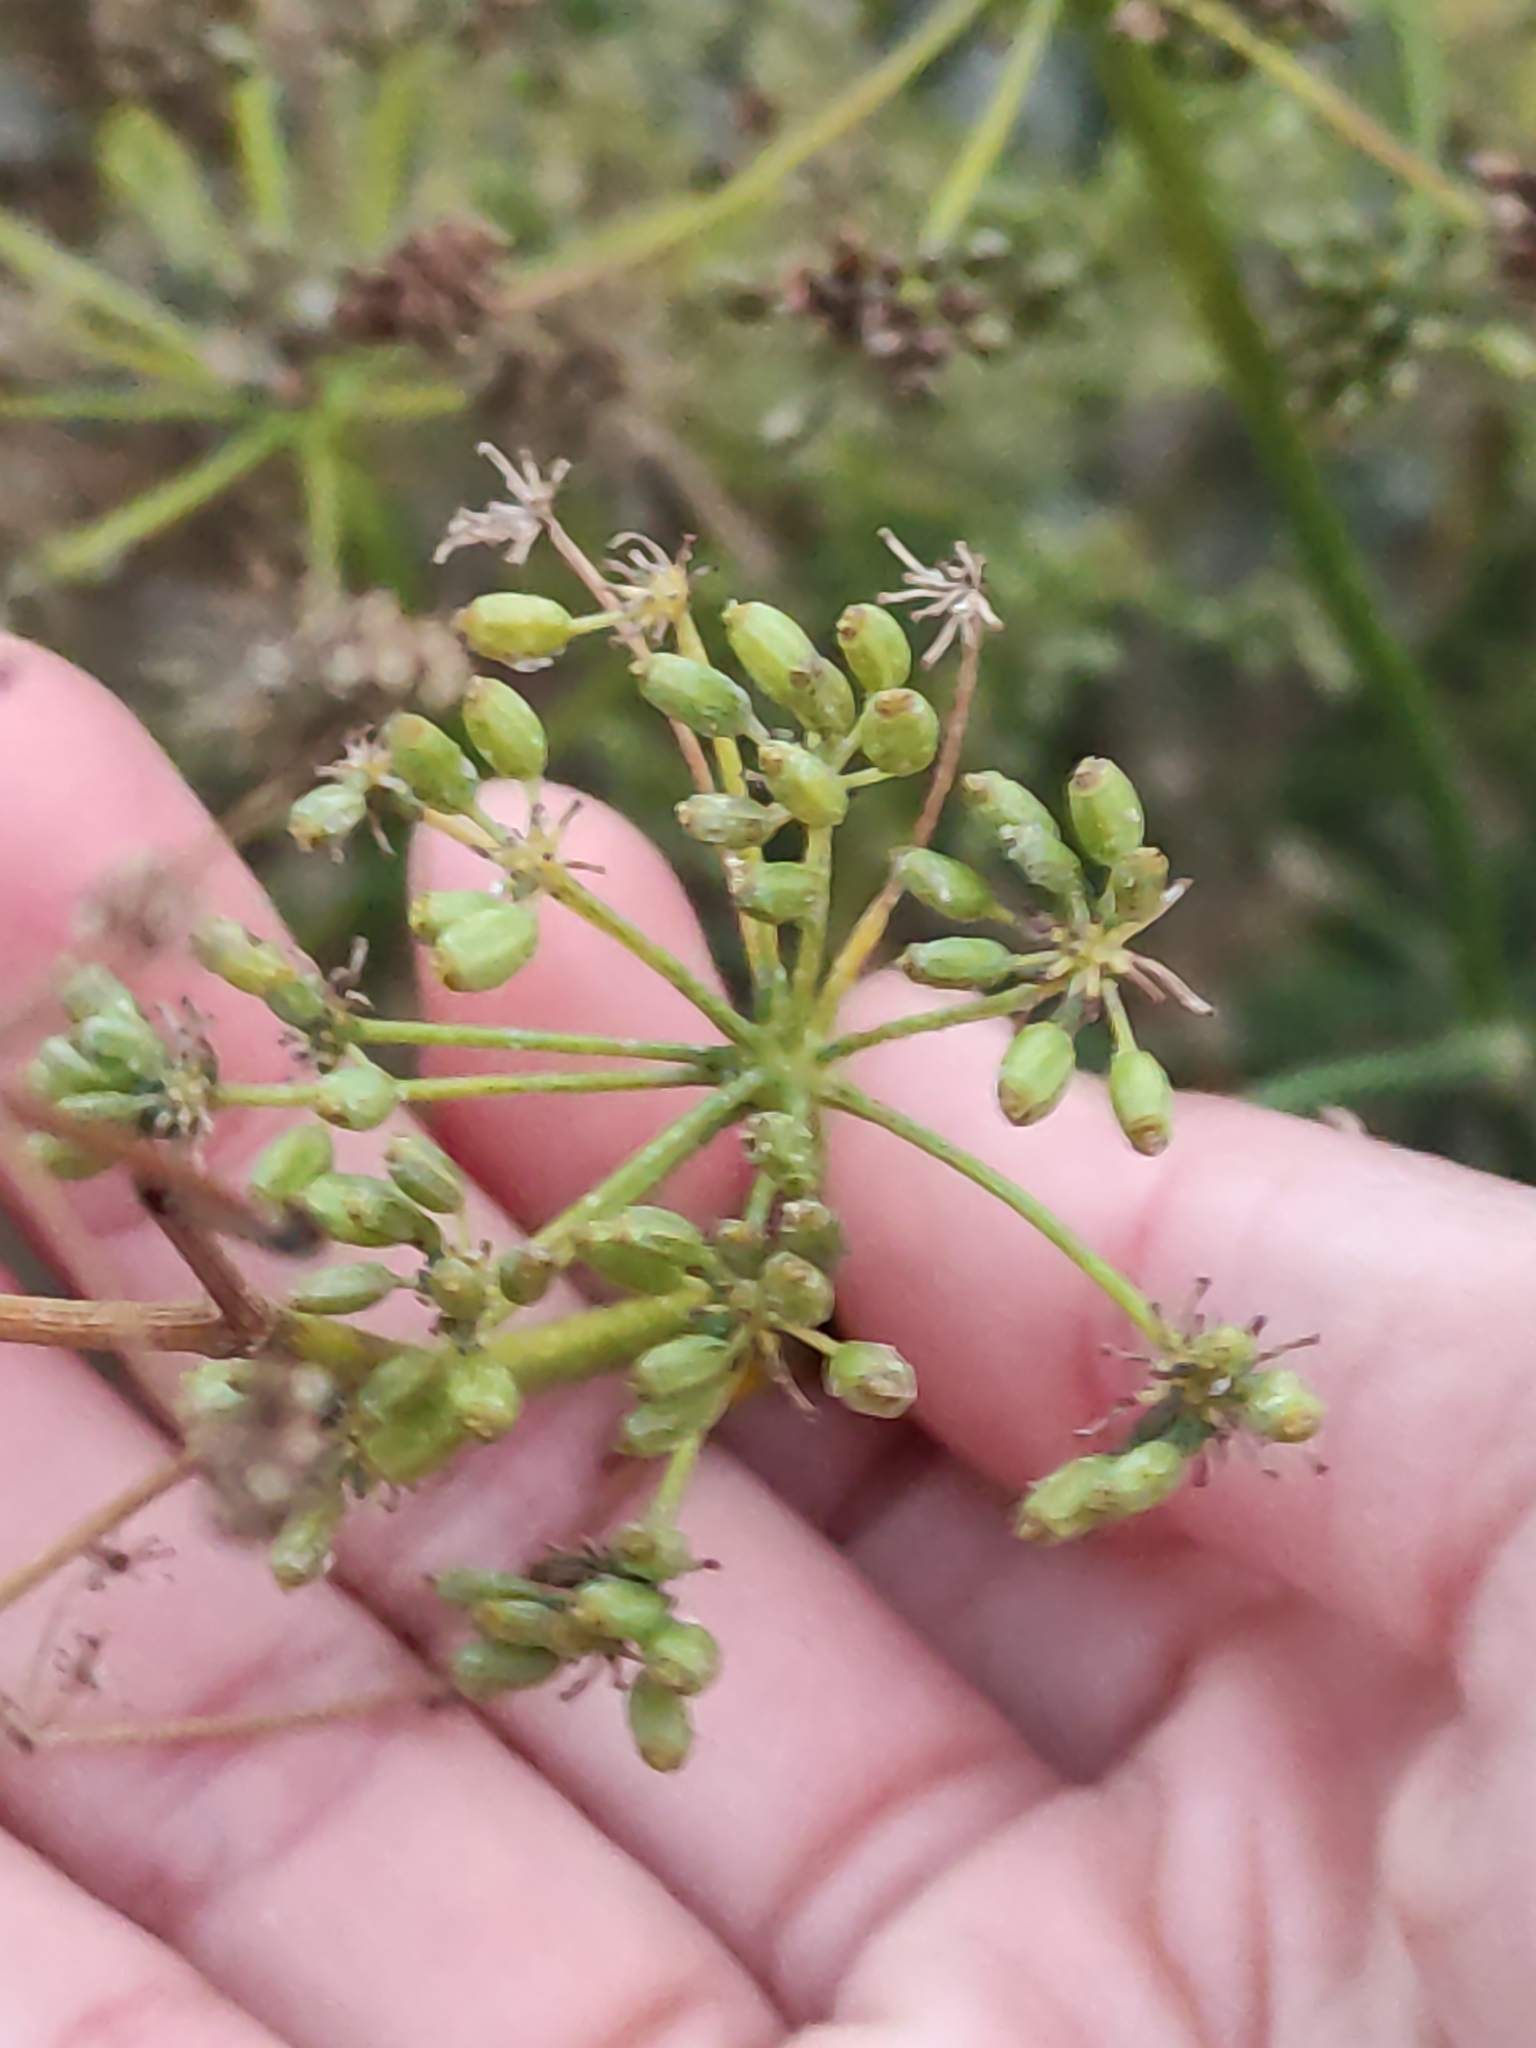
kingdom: Plantae
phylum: Tracheophyta
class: Magnoliopsida
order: Apiales
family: Apiaceae
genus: Foeniculum
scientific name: Foeniculum vulgare
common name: Fennel
